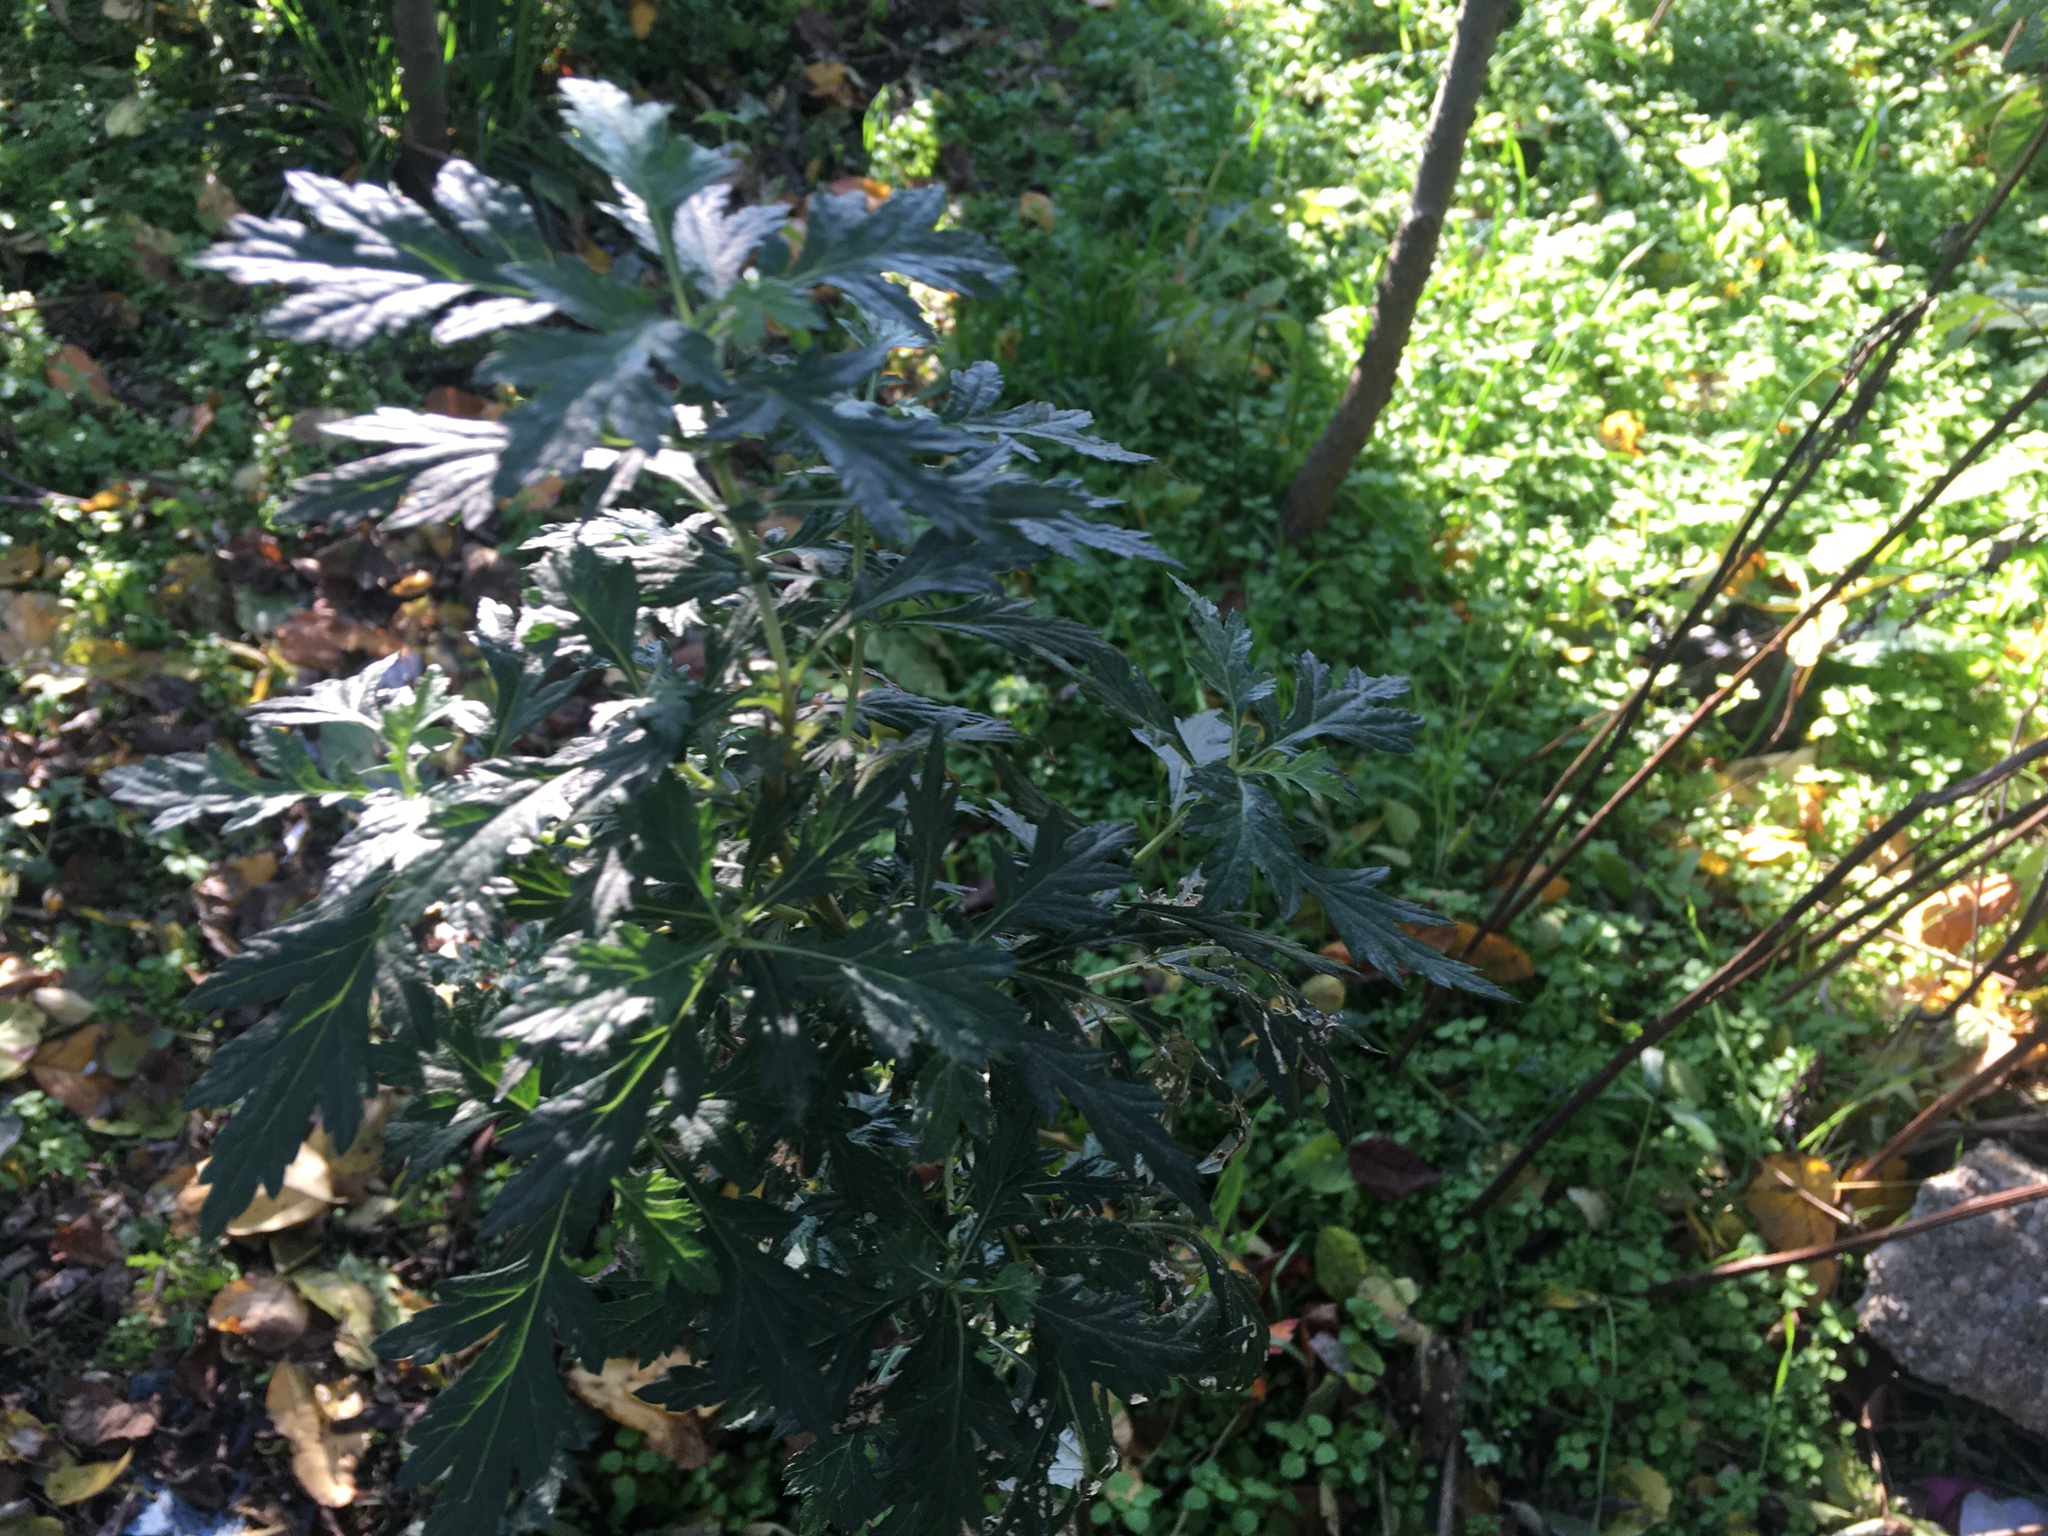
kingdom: Plantae
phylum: Tracheophyta
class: Magnoliopsida
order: Asterales
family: Asteraceae
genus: Artemisia
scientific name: Artemisia vulgaris
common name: Mugwort
